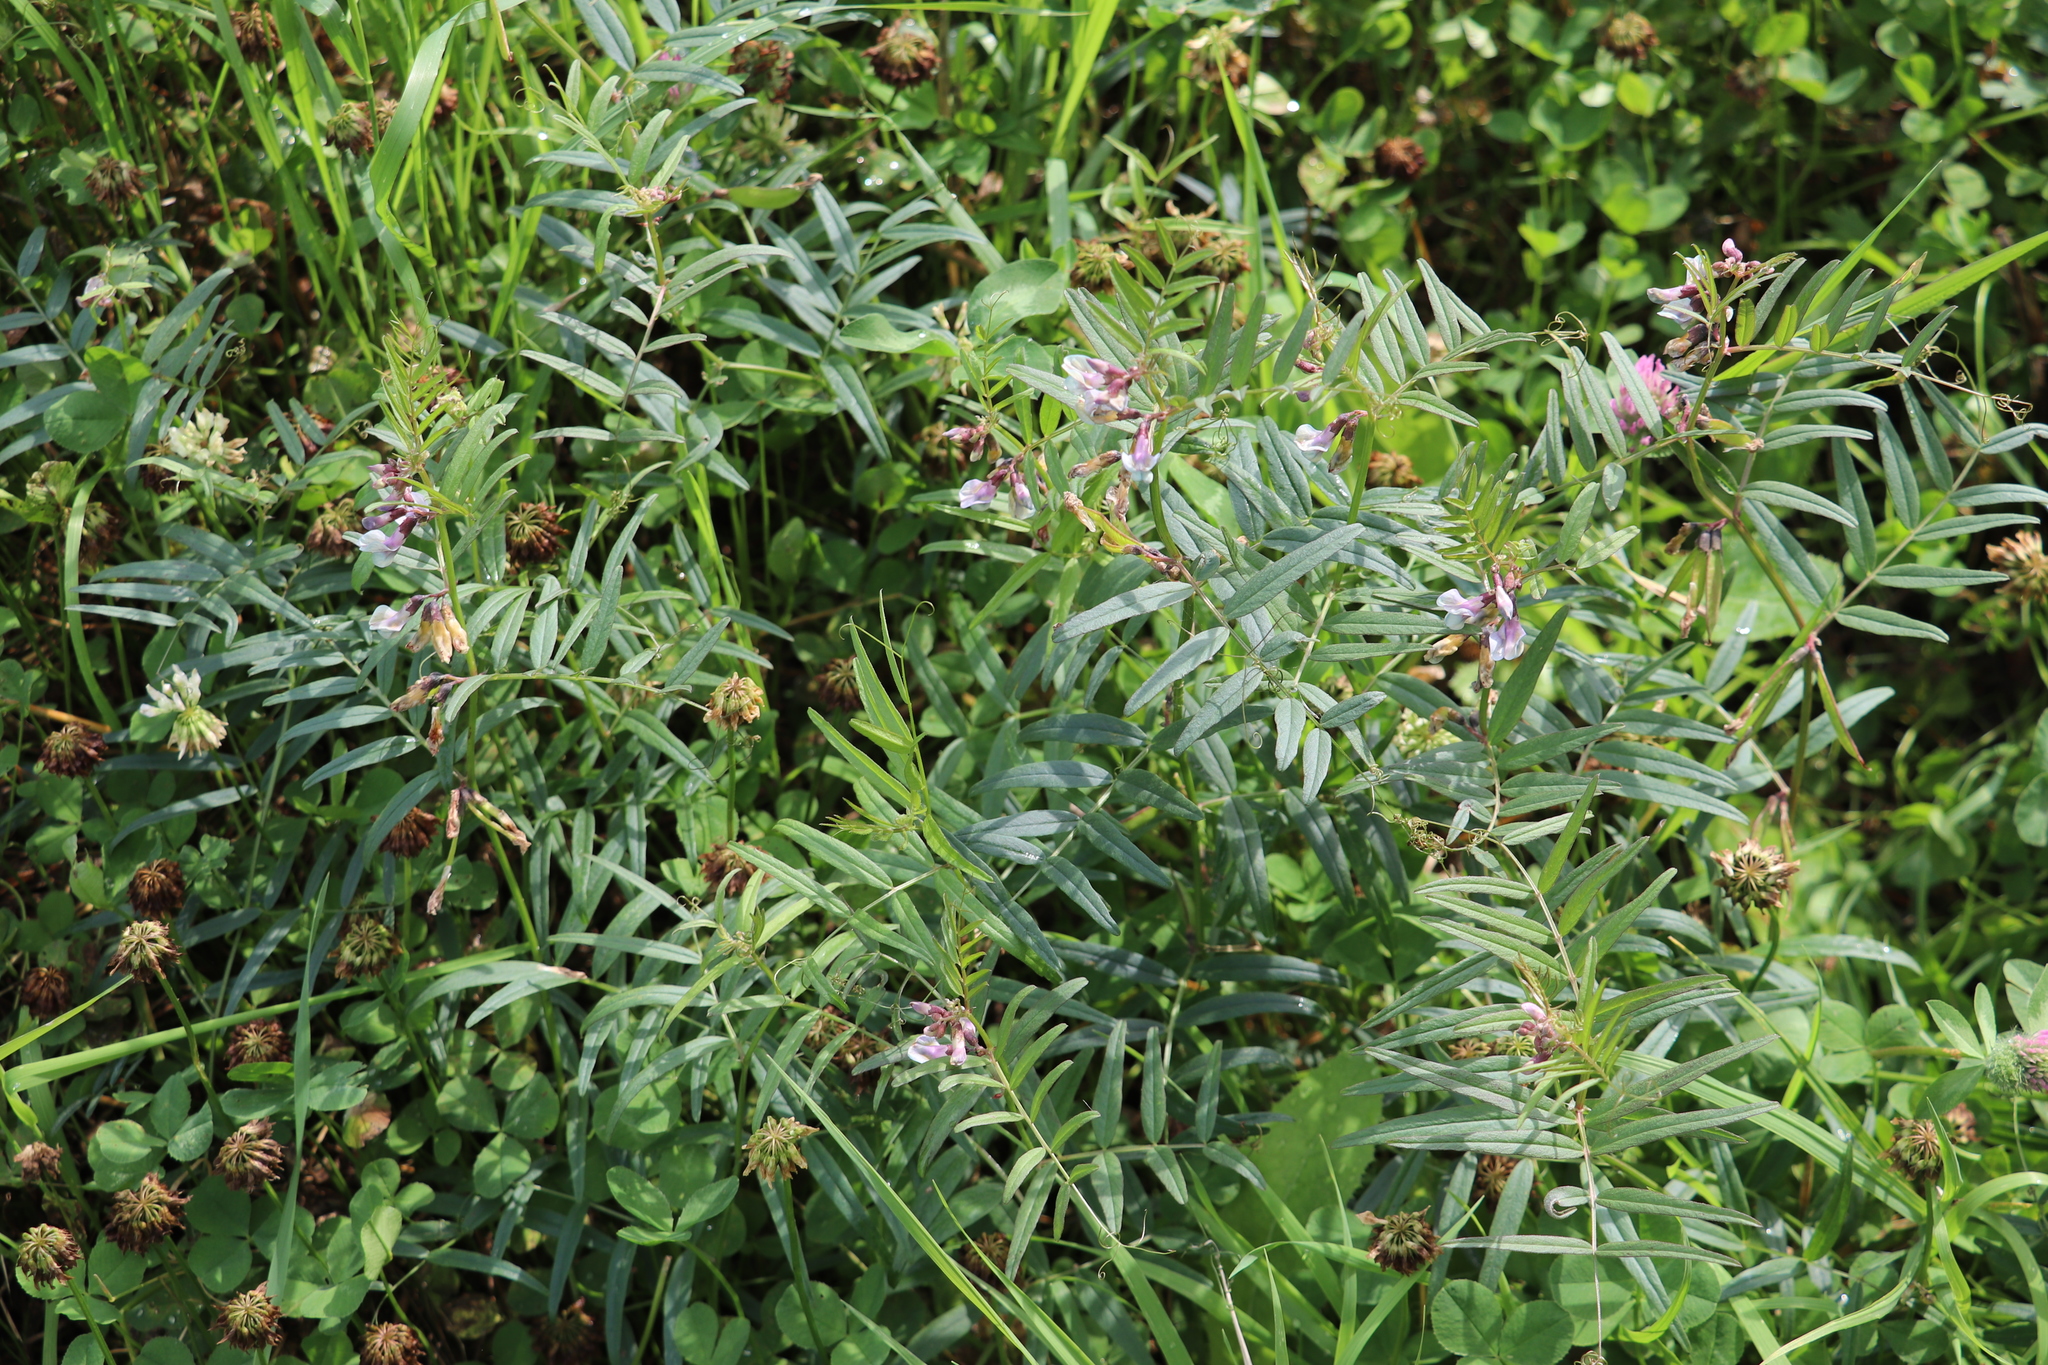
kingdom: Plantae
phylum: Tracheophyta
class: Magnoliopsida
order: Fabales
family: Fabaceae
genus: Vicia
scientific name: Vicia sepium
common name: Bush vetch
